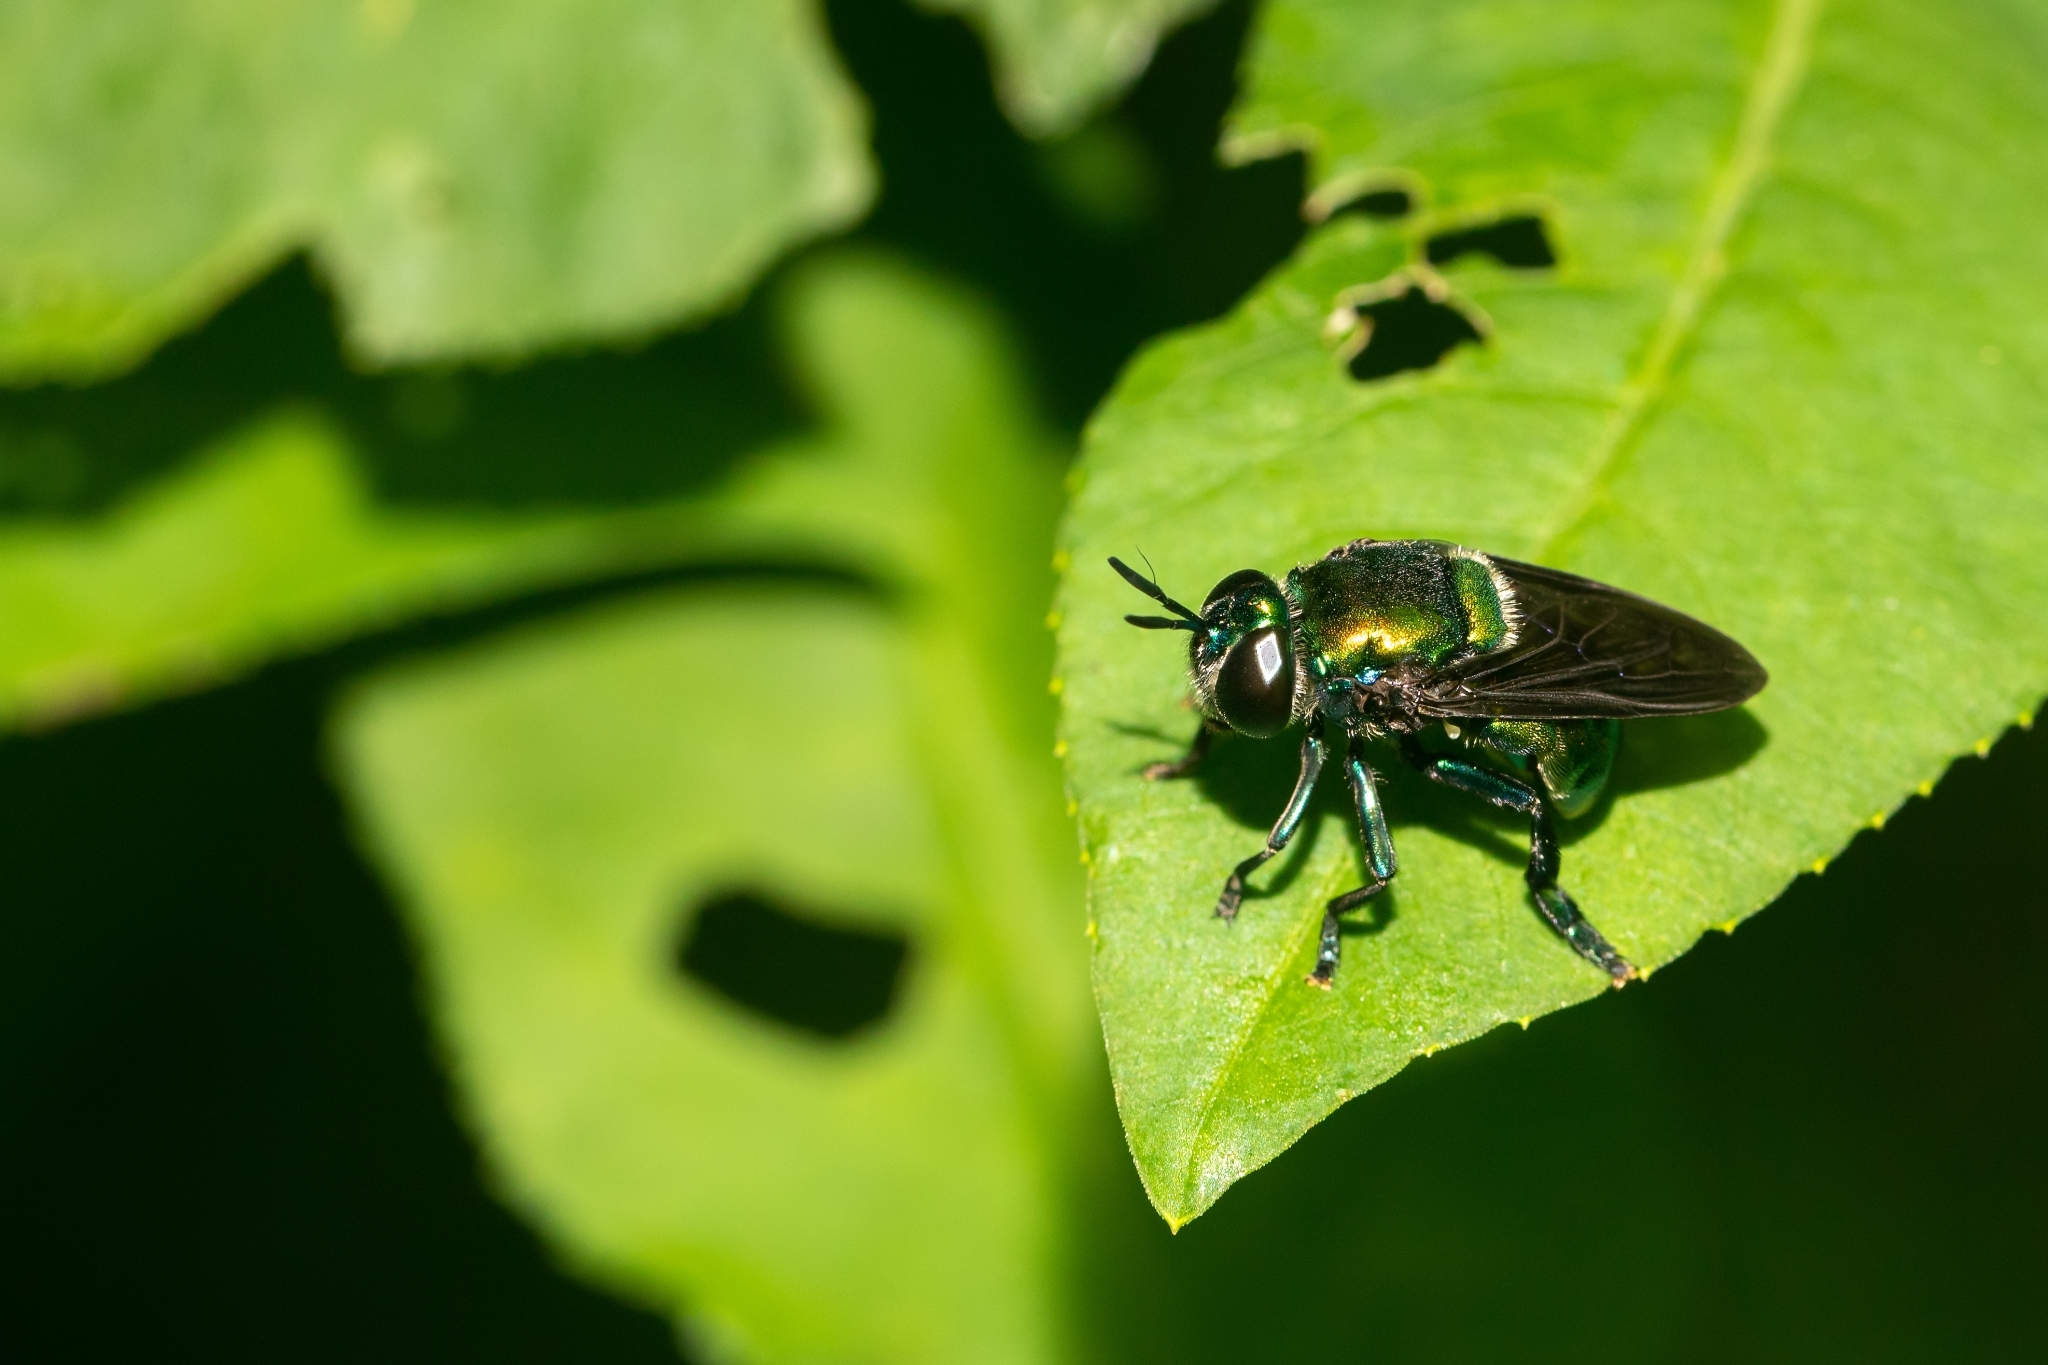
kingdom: Animalia
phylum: Arthropoda
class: Insecta
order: Diptera
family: Syrphidae
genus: Microdon
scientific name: Microdon fulgens
